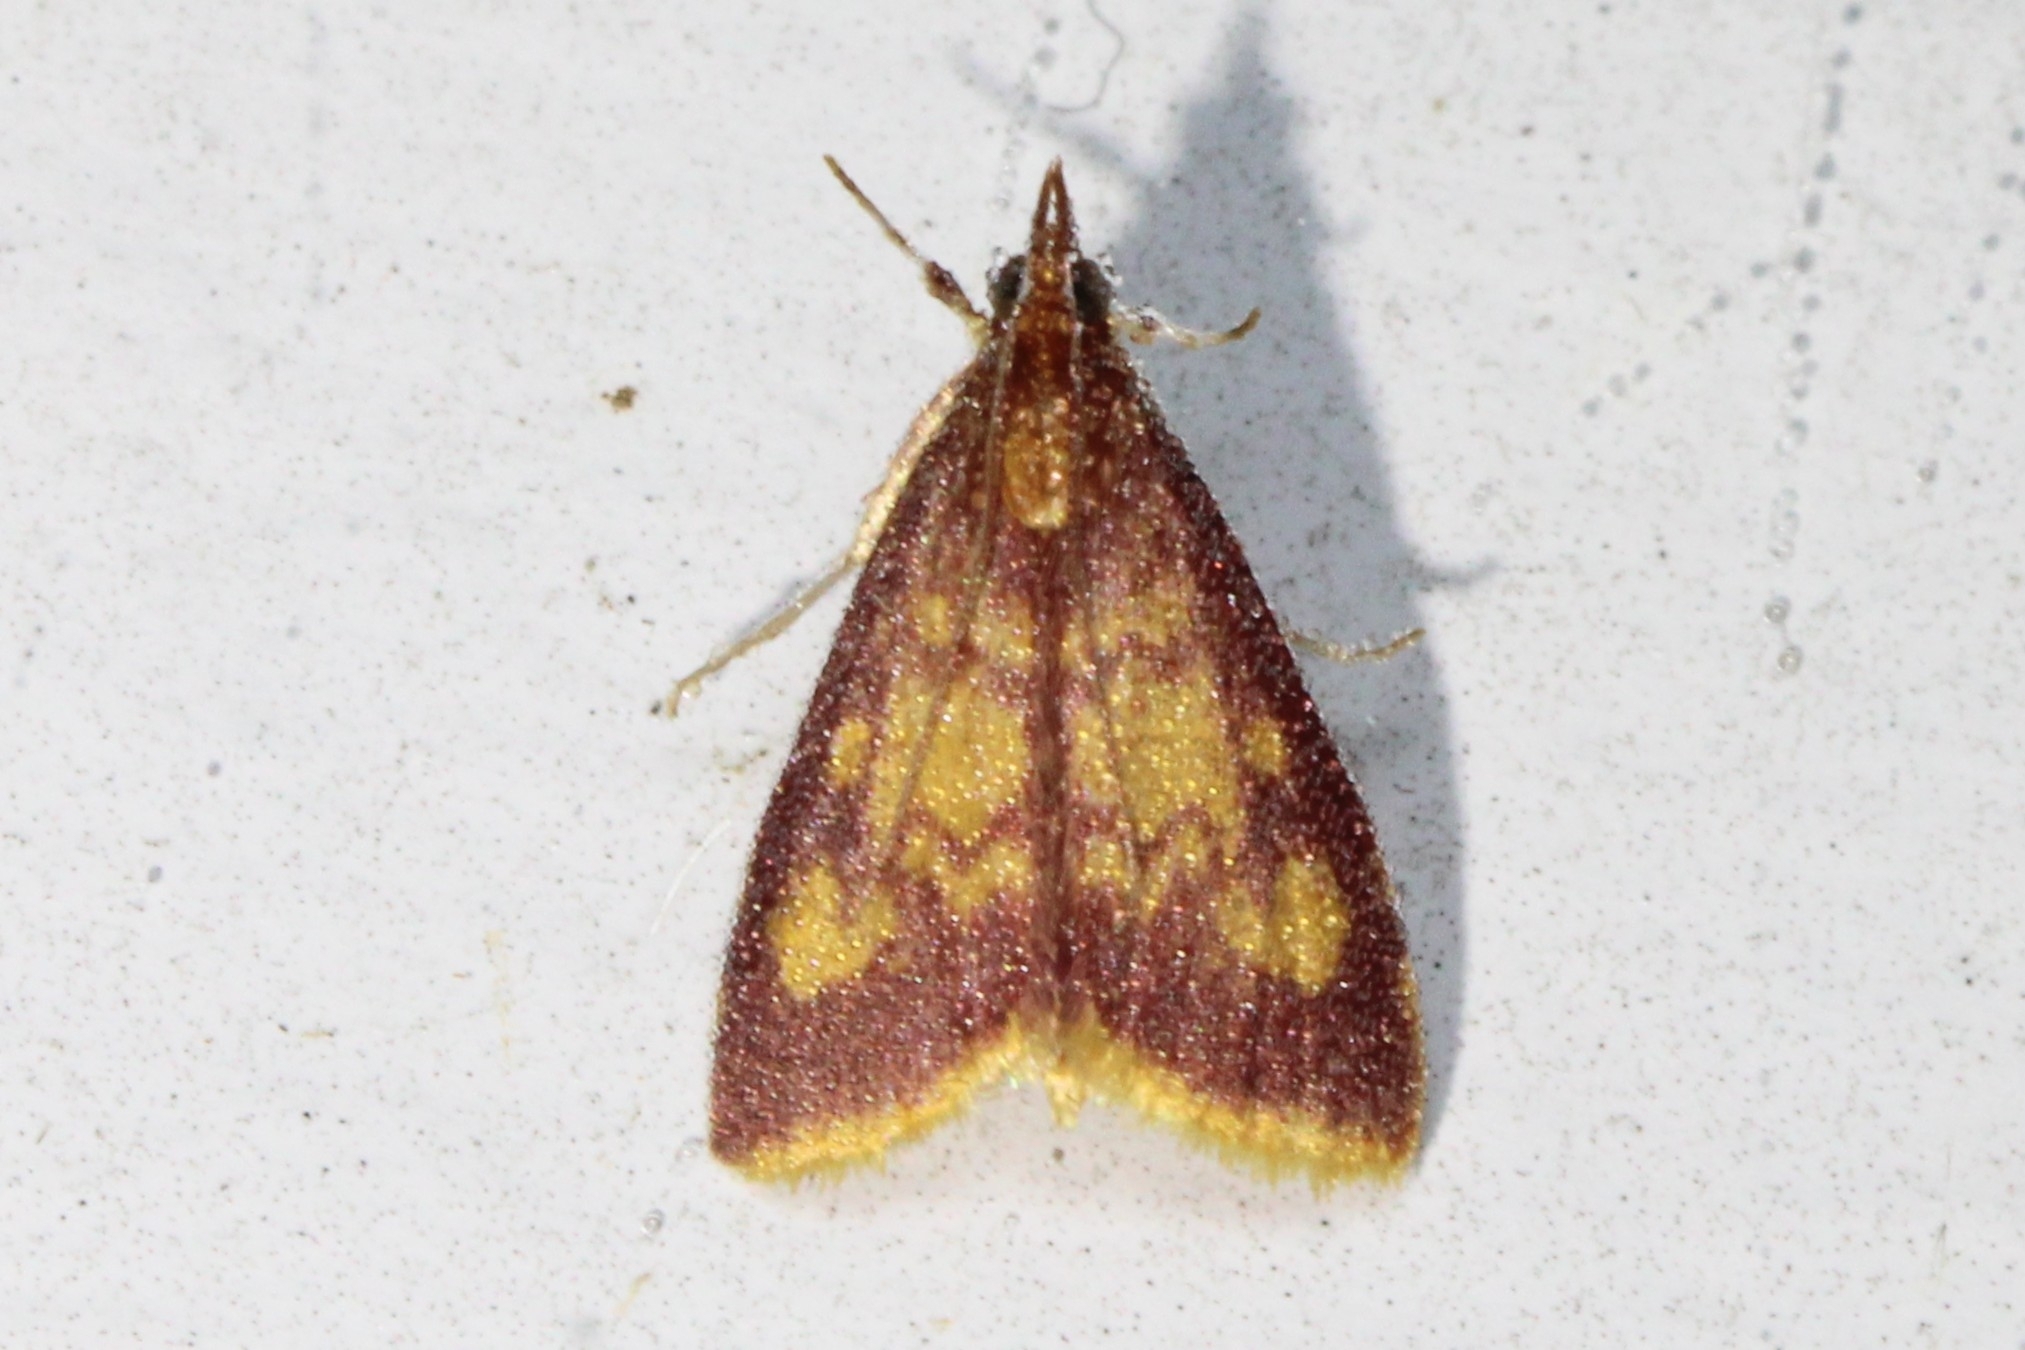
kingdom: Animalia
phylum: Arthropoda
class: Insecta
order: Lepidoptera
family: Crambidae
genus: Pyrausta
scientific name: Pyrausta acrionalis
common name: Mint-loving pyrausta moth
